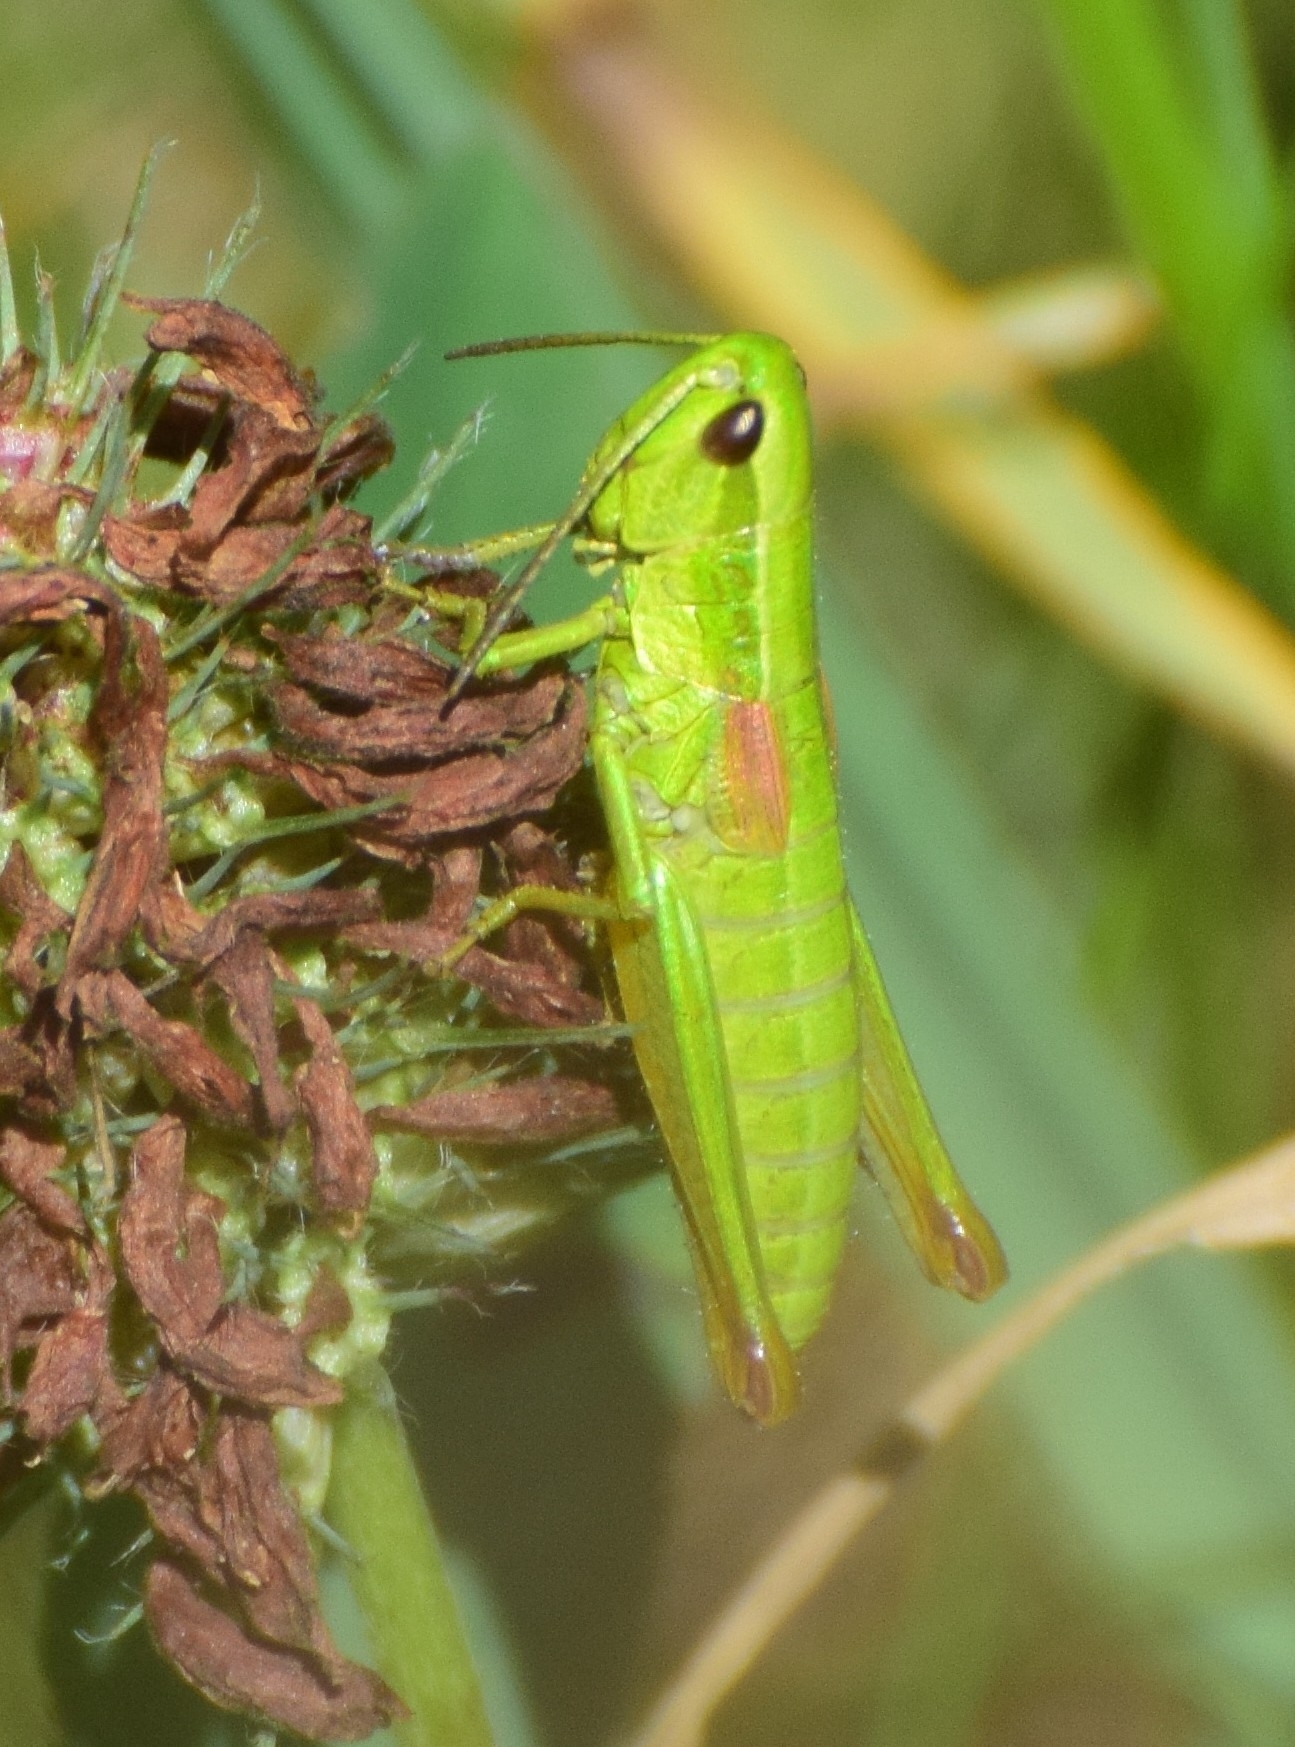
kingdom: Animalia
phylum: Arthropoda
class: Insecta
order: Orthoptera
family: Acrididae
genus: Euthystira
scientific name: Euthystira brachyptera
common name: Small gold grasshopper
